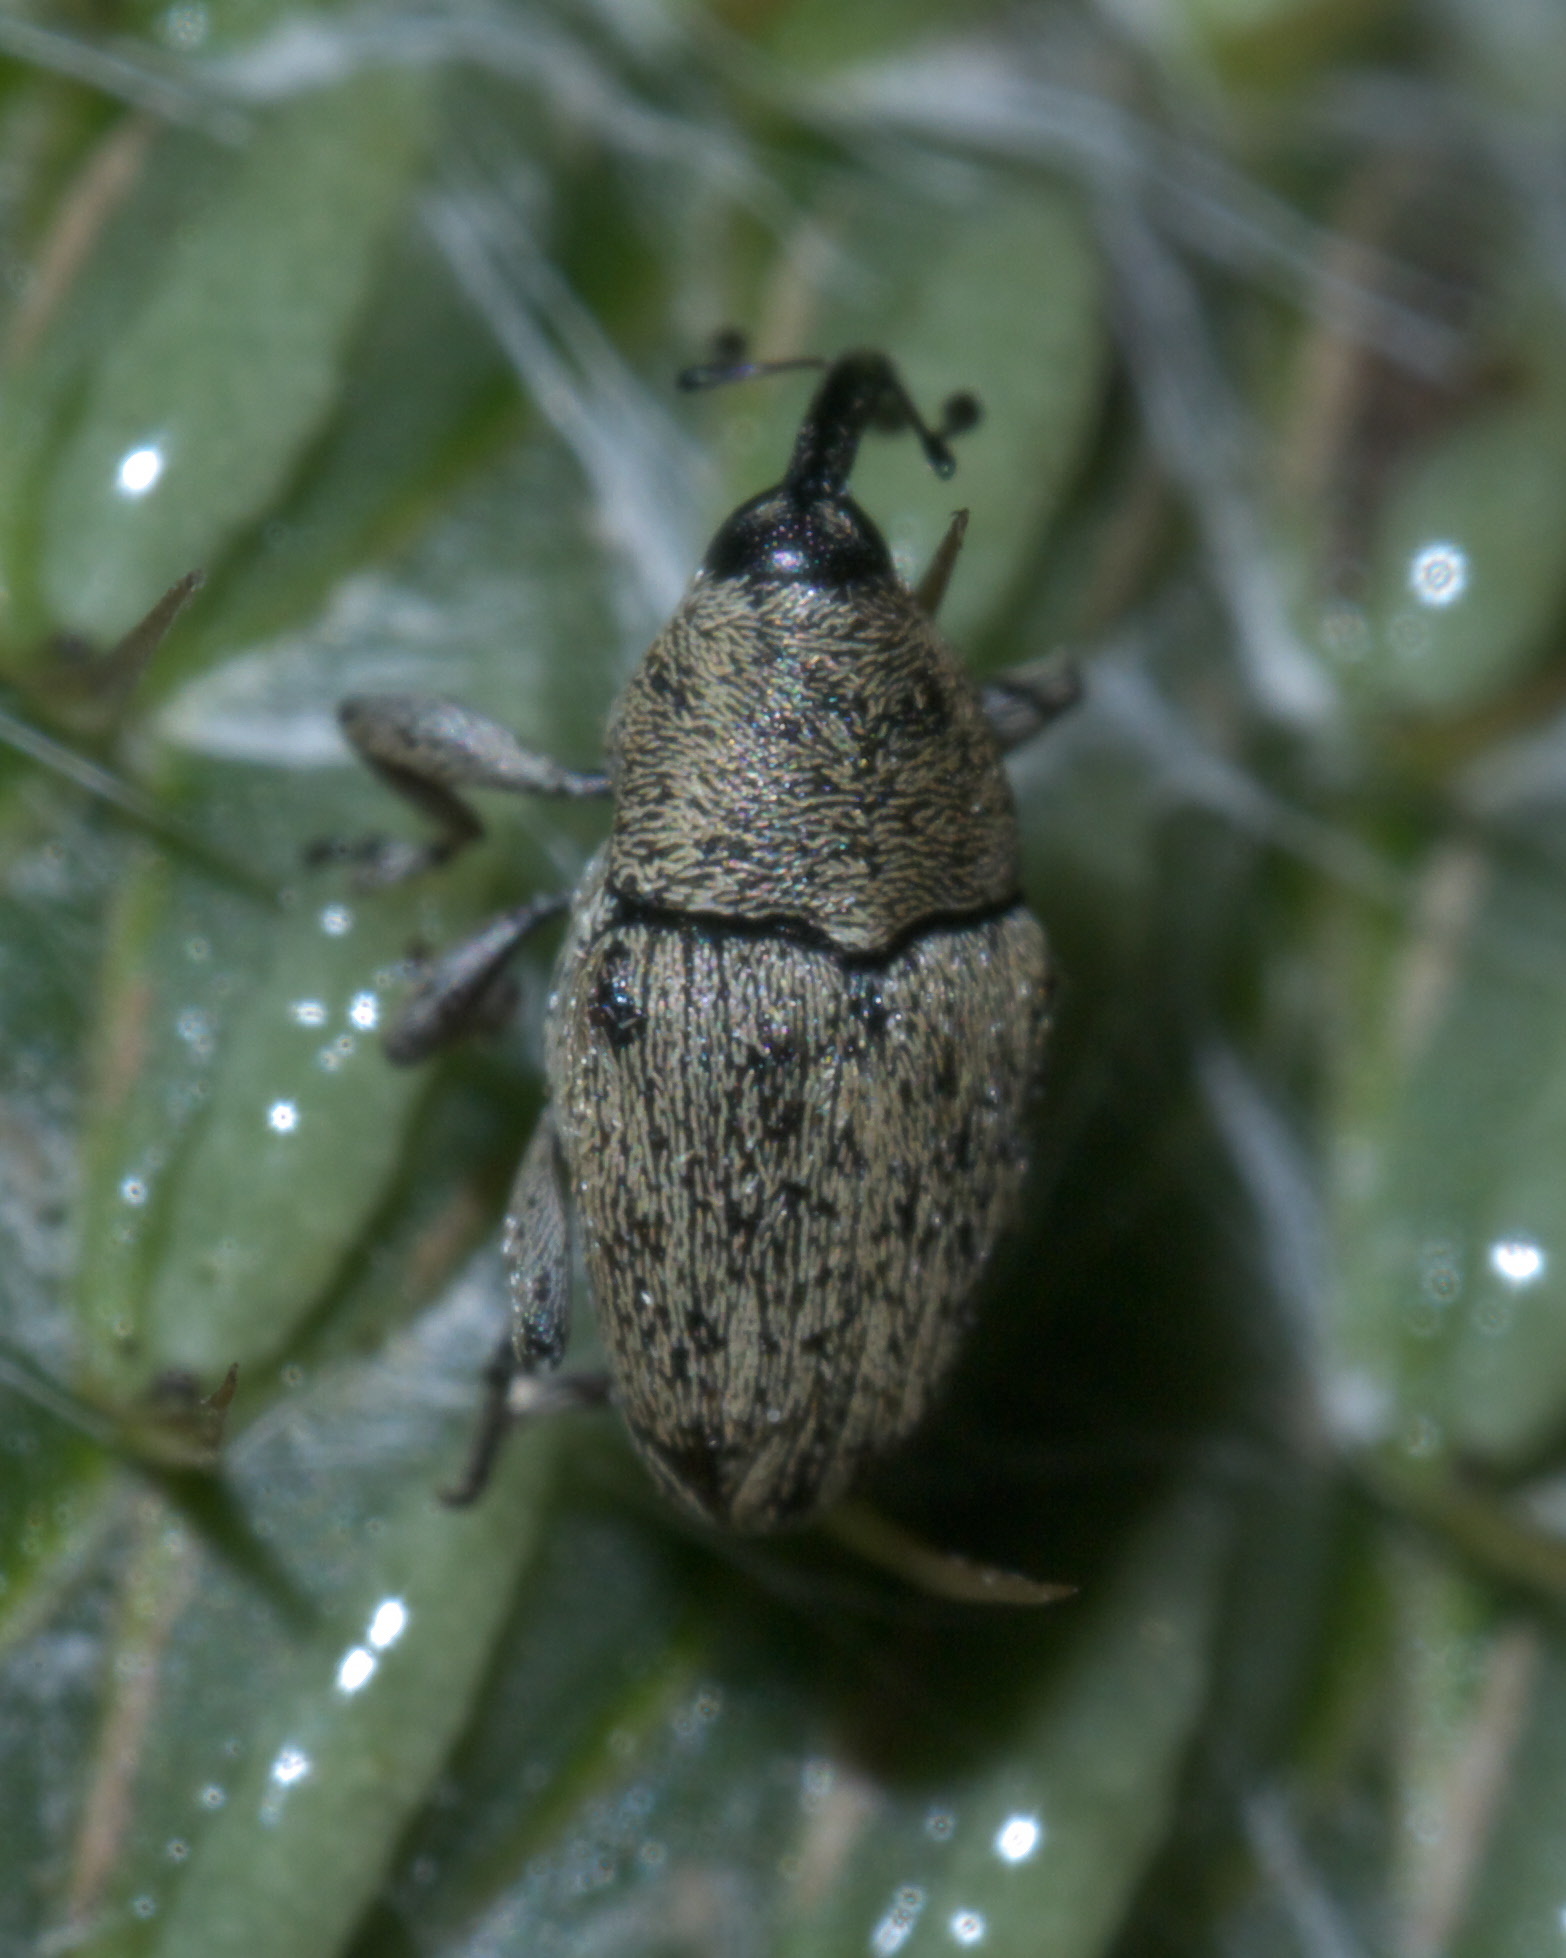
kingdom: Animalia
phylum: Arthropoda
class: Insecta
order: Coleoptera
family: Curculionidae
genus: Linogeraeus
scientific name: Linogeraeus neglectus
